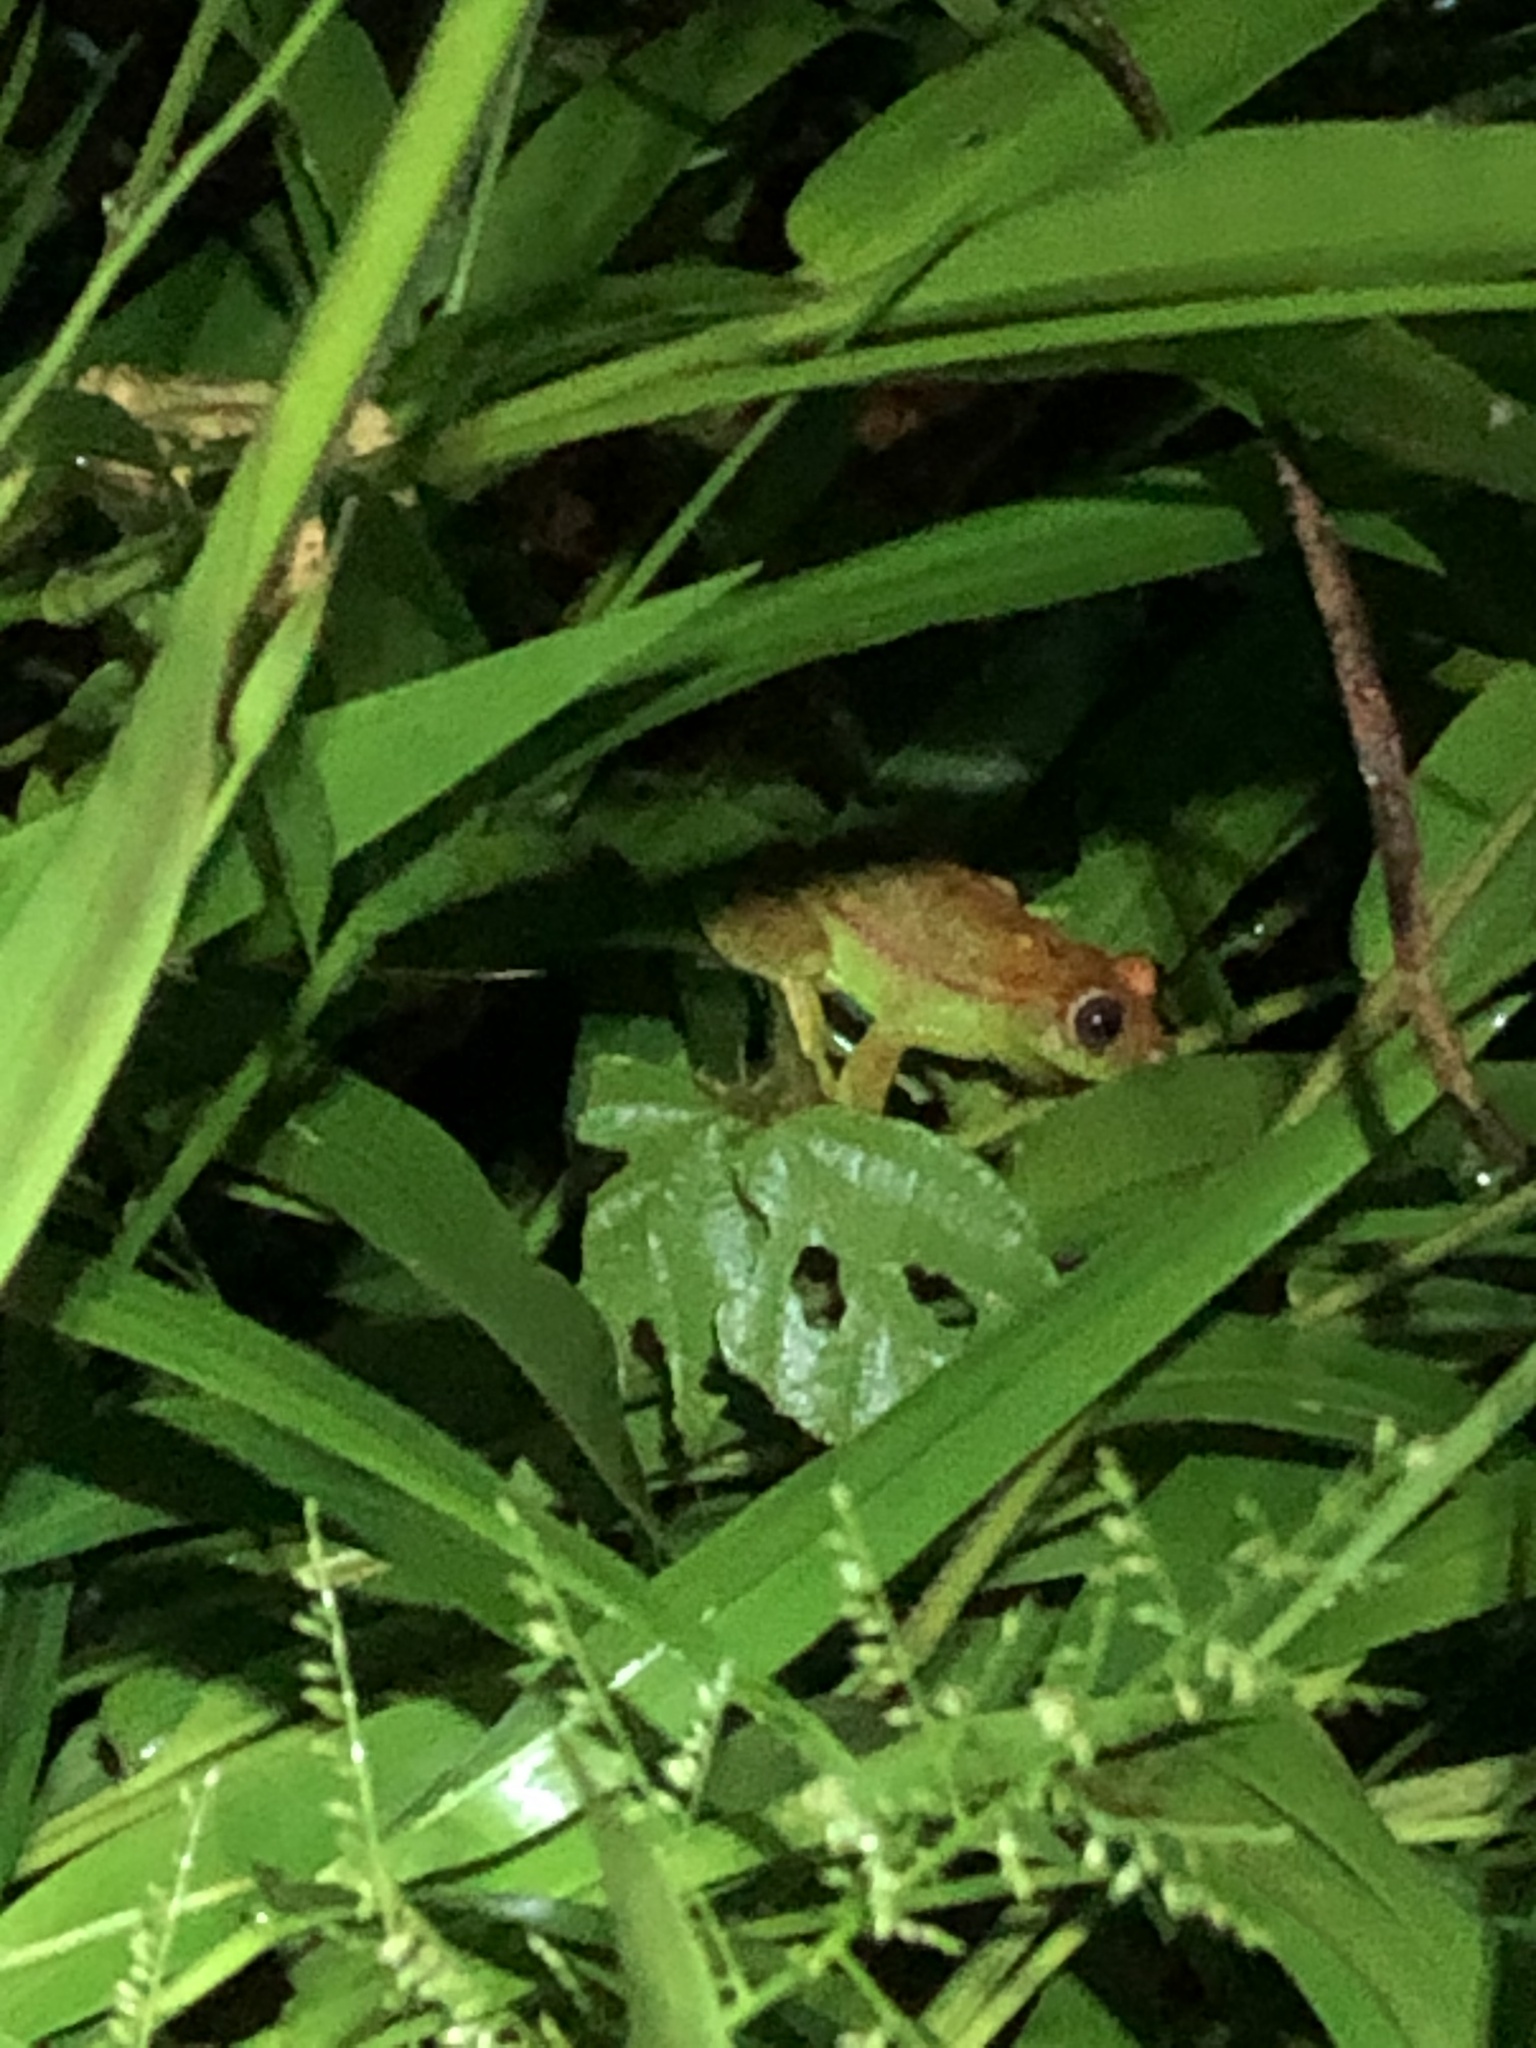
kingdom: Animalia
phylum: Chordata
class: Amphibia
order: Anura
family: Hylidae
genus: Boana
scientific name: Boana punctata
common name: Polka-dot treefrog
